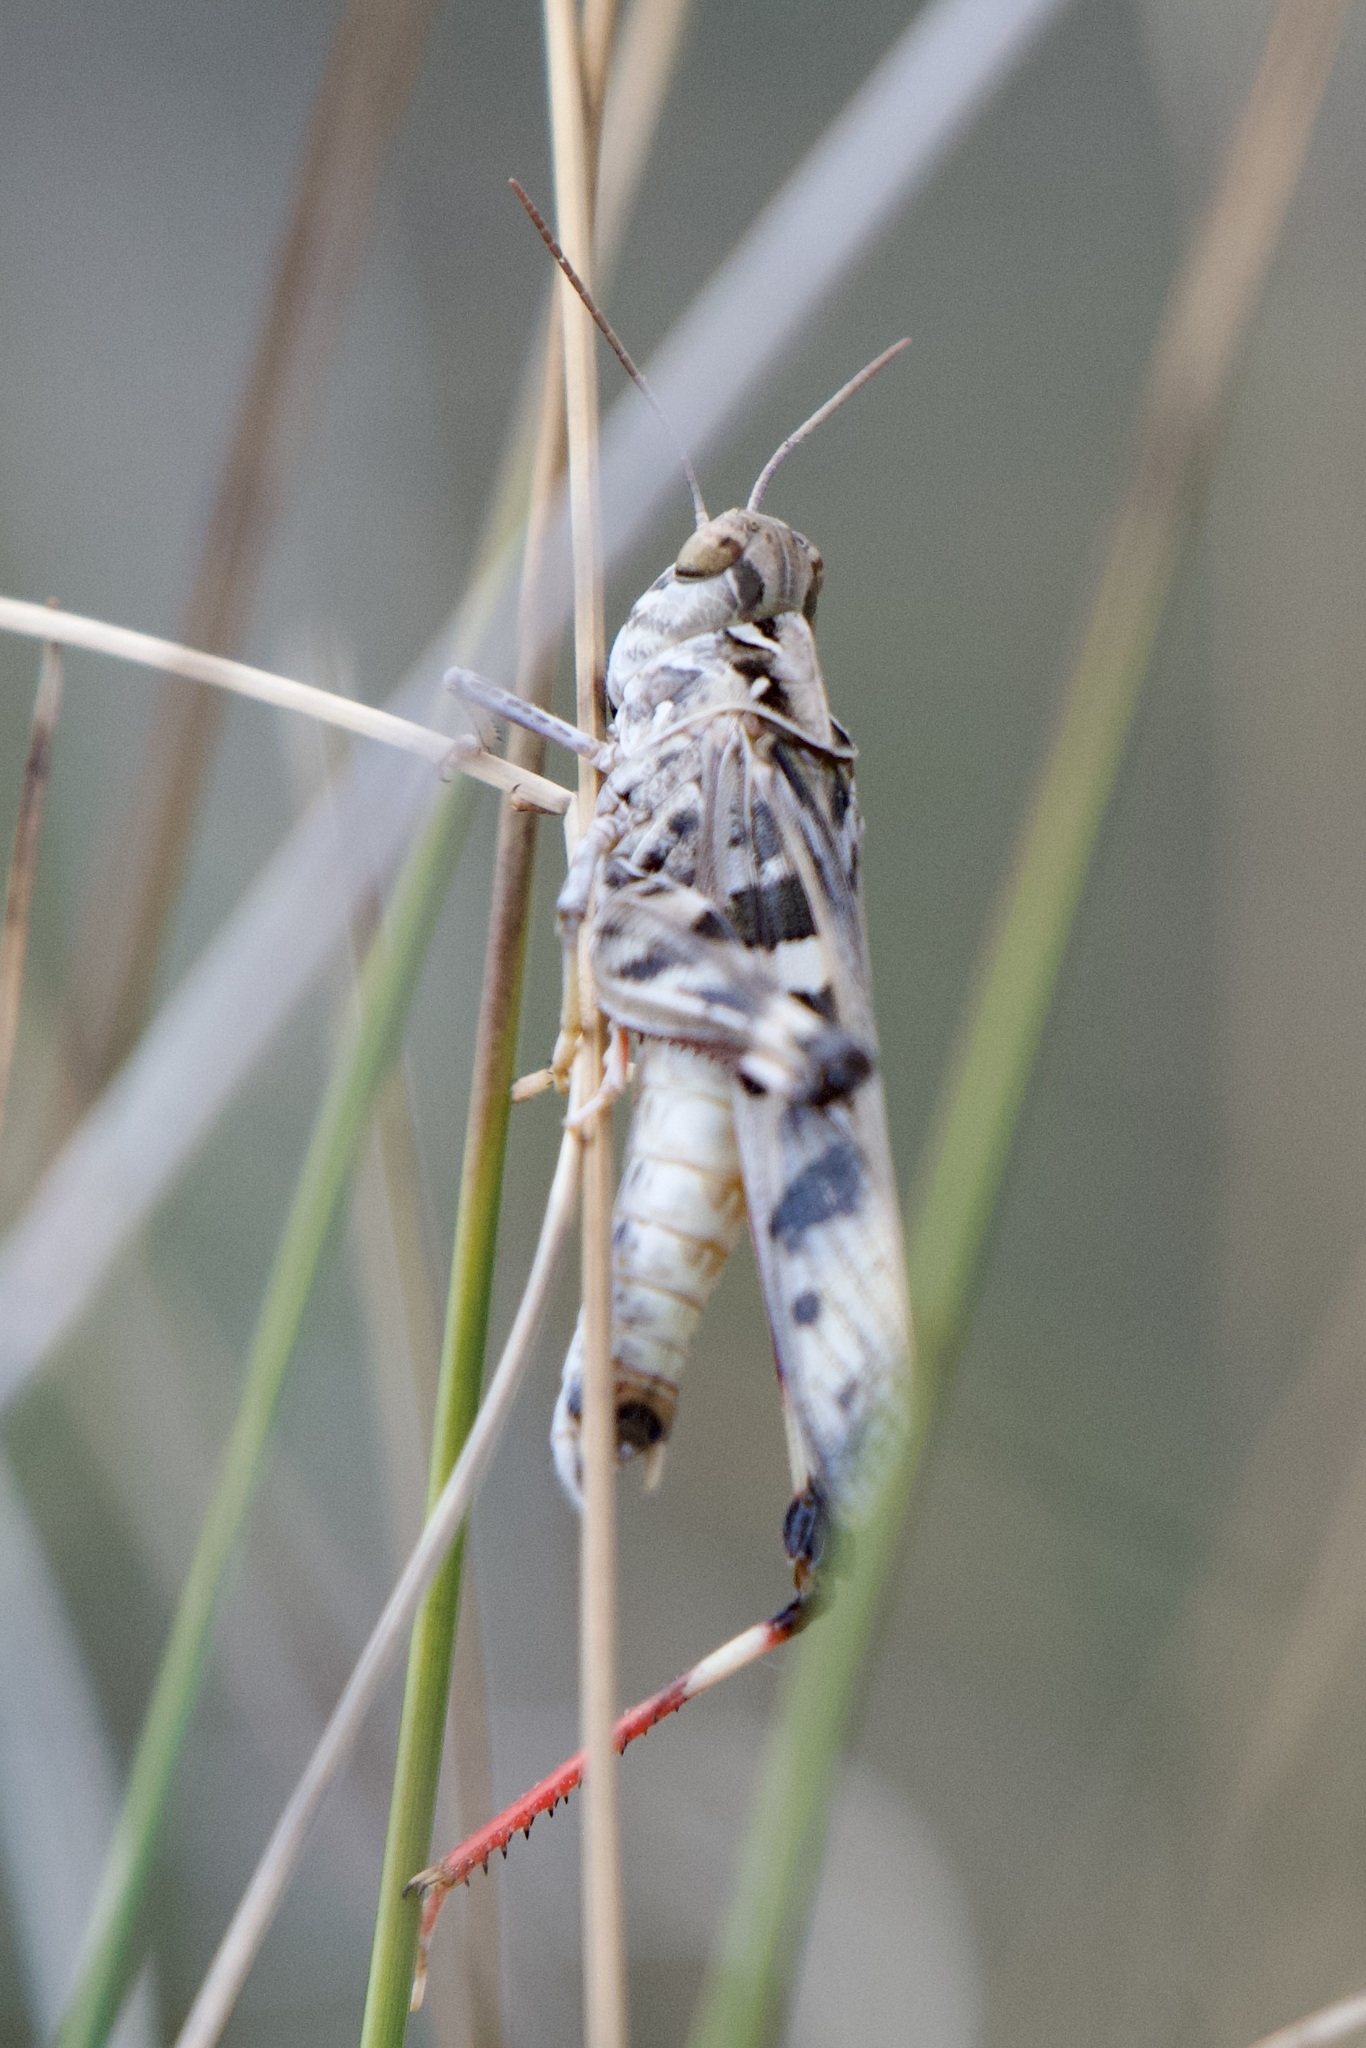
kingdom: Animalia
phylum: Arthropoda
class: Insecta
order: Orthoptera
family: Acrididae
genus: Oedaleus
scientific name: Oedaleus decorus
